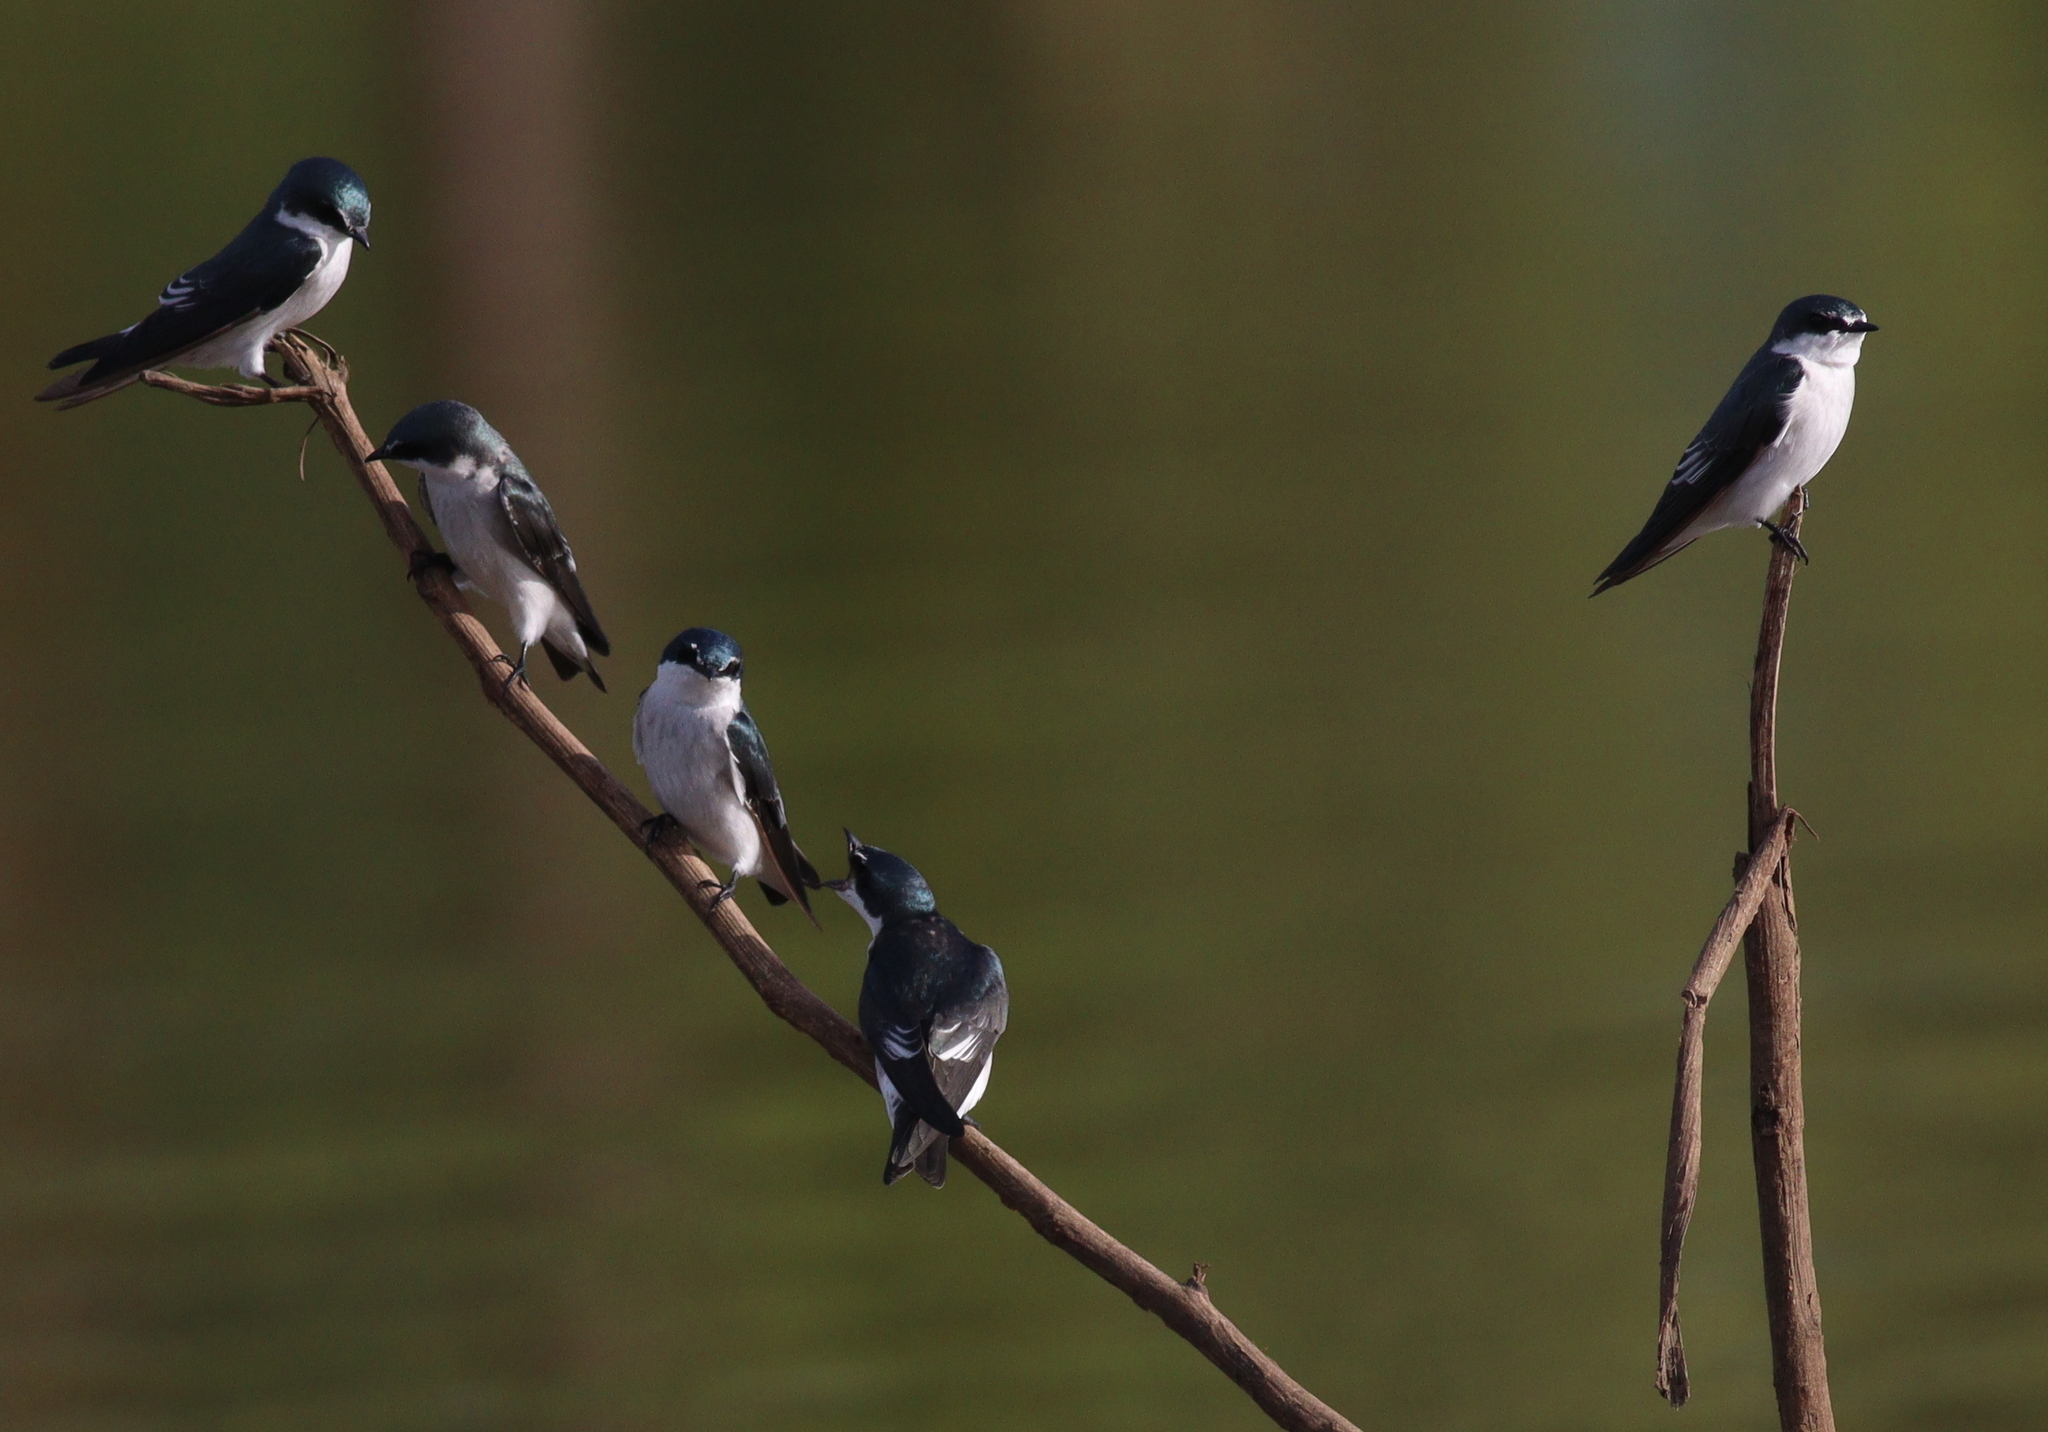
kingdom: Animalia
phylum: Chordata
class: Aves
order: Passeriformes
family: Hirundinidae
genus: Tachycineta
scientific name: Tachycineta albilinea
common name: Mangrove swallow
